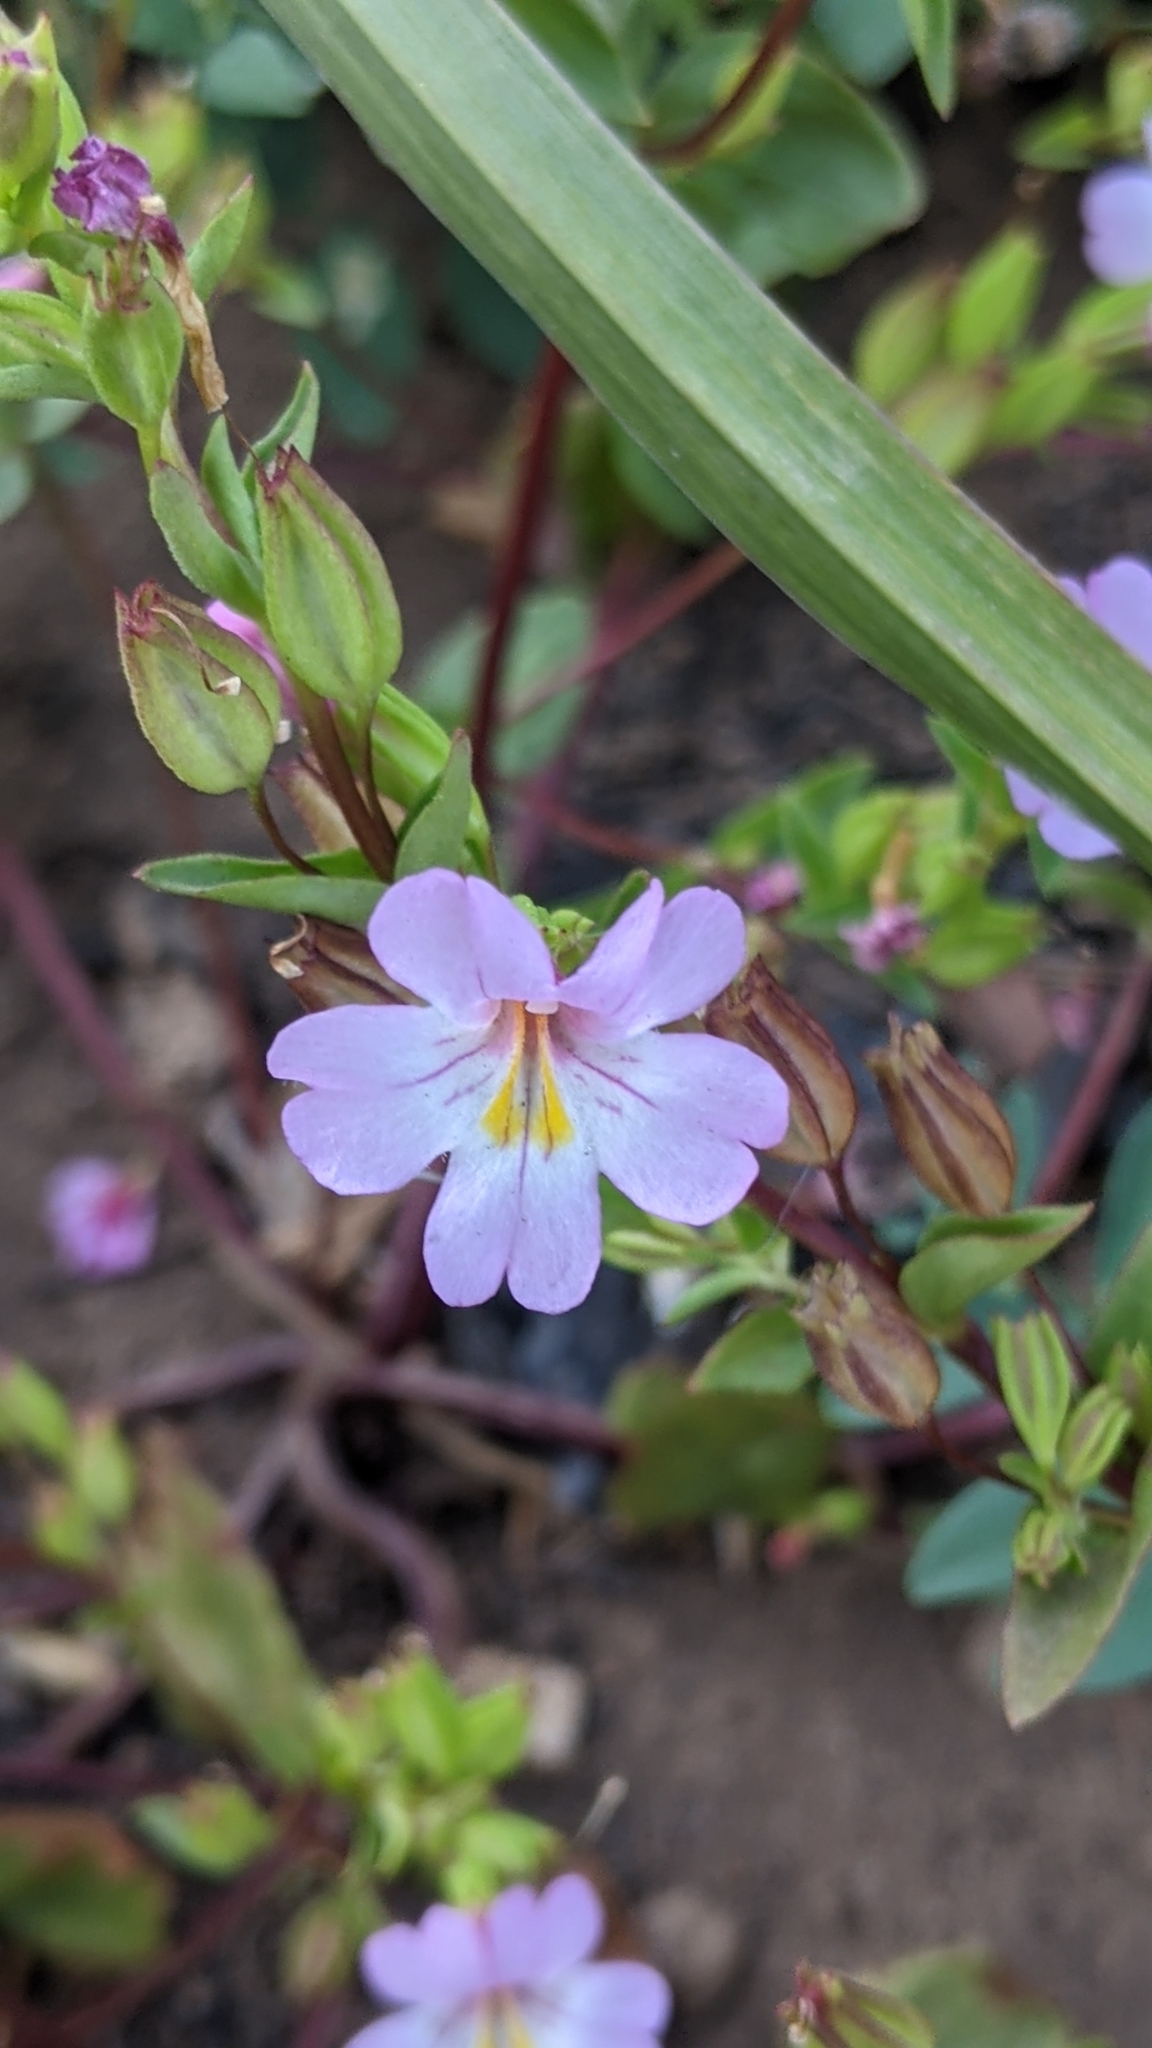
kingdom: Plantae
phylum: Tracheophyta
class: Magnoliopsida
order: Lamiales
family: Phrymaceae
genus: Erythranthe
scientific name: Erythranthe inconspicua
